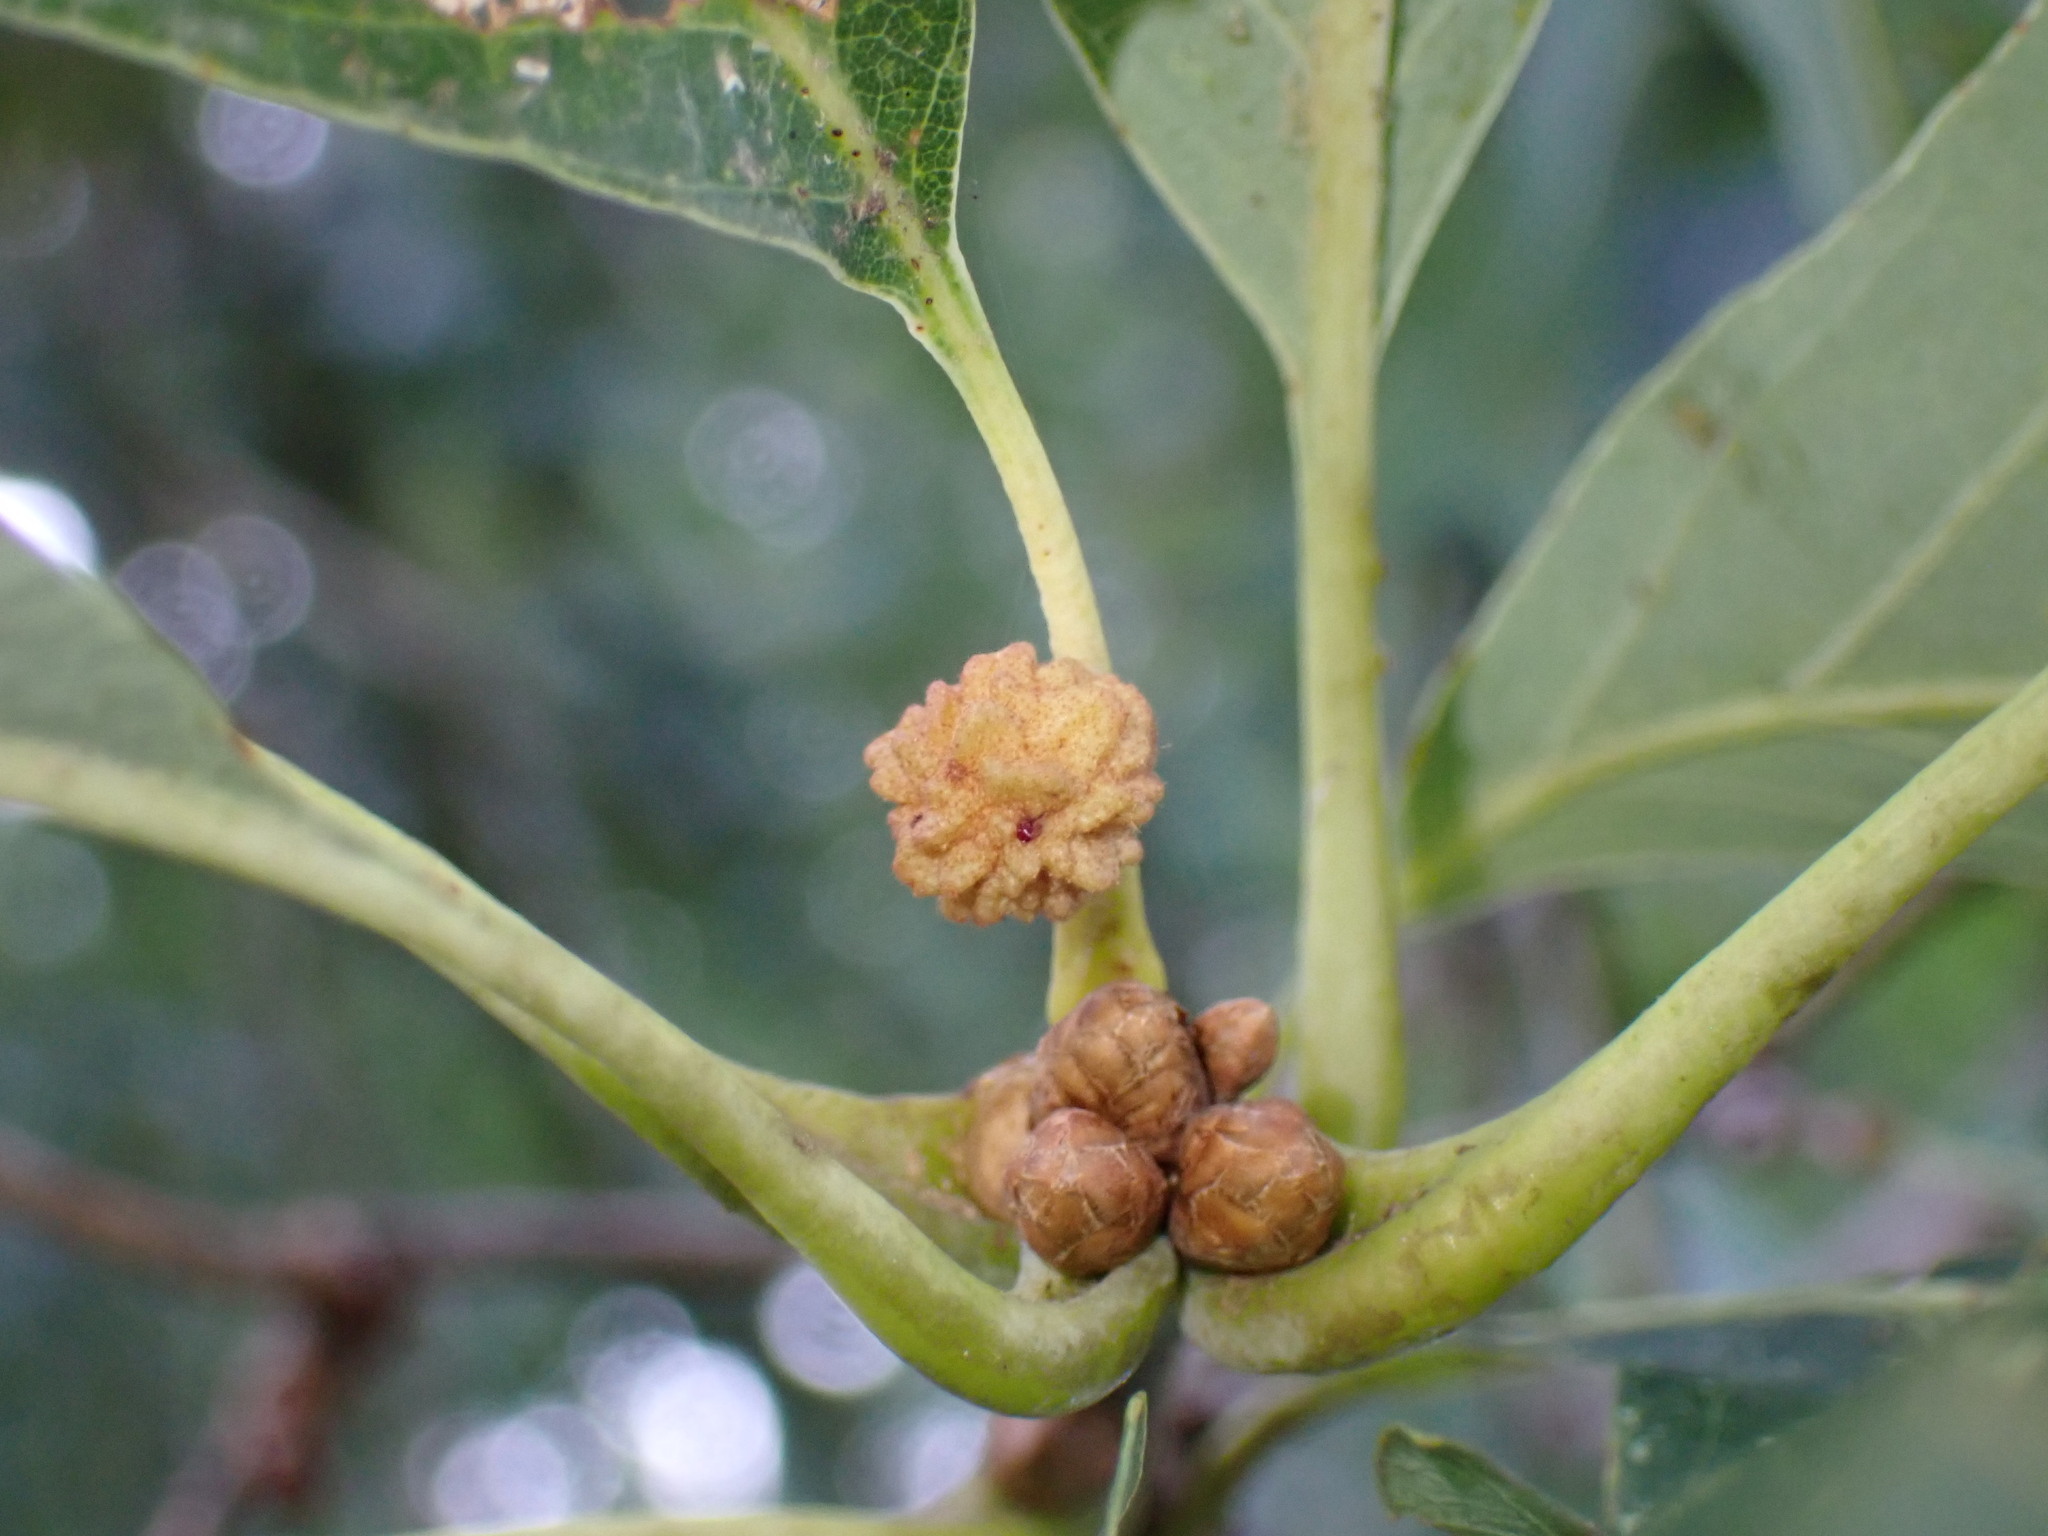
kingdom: Animalia
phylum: Arthropoda
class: Insecta
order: Hymenoptera
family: Cynipidae
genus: Andricus
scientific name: Andricus
